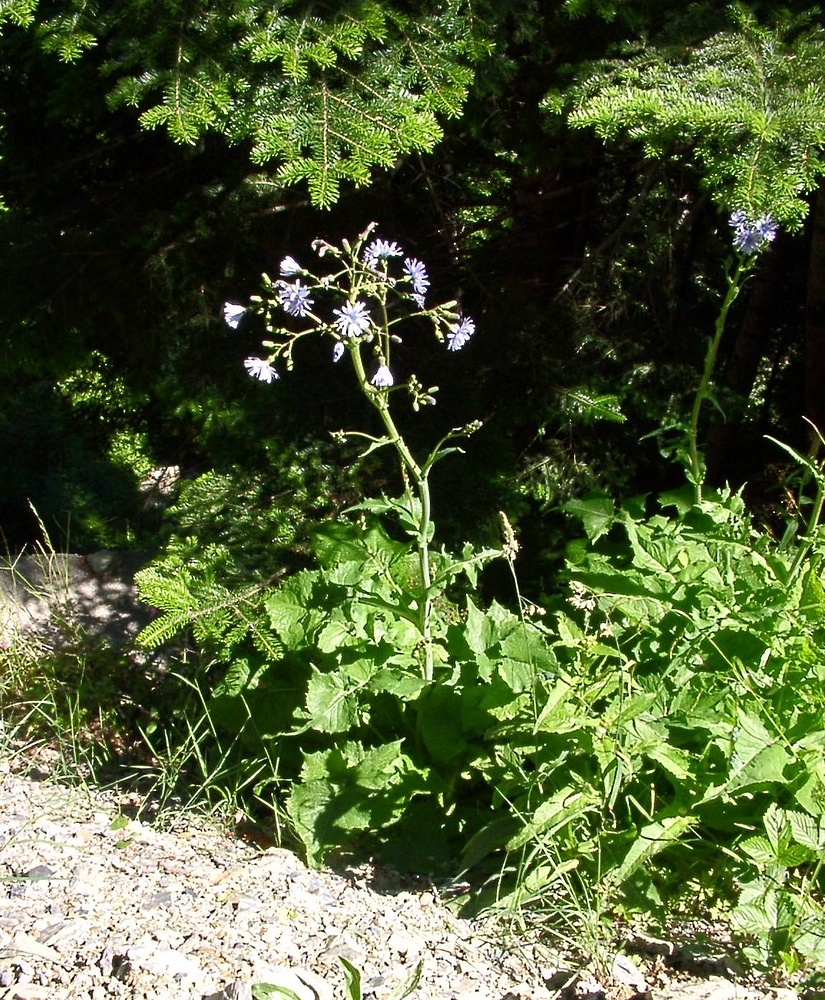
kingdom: Plantae
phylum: Tracheophyta
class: Magnoliopsida
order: Asterales
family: Asteraceae
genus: Lactuca
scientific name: Lactuca plumieri
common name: Hairless blue-sow-thistle
